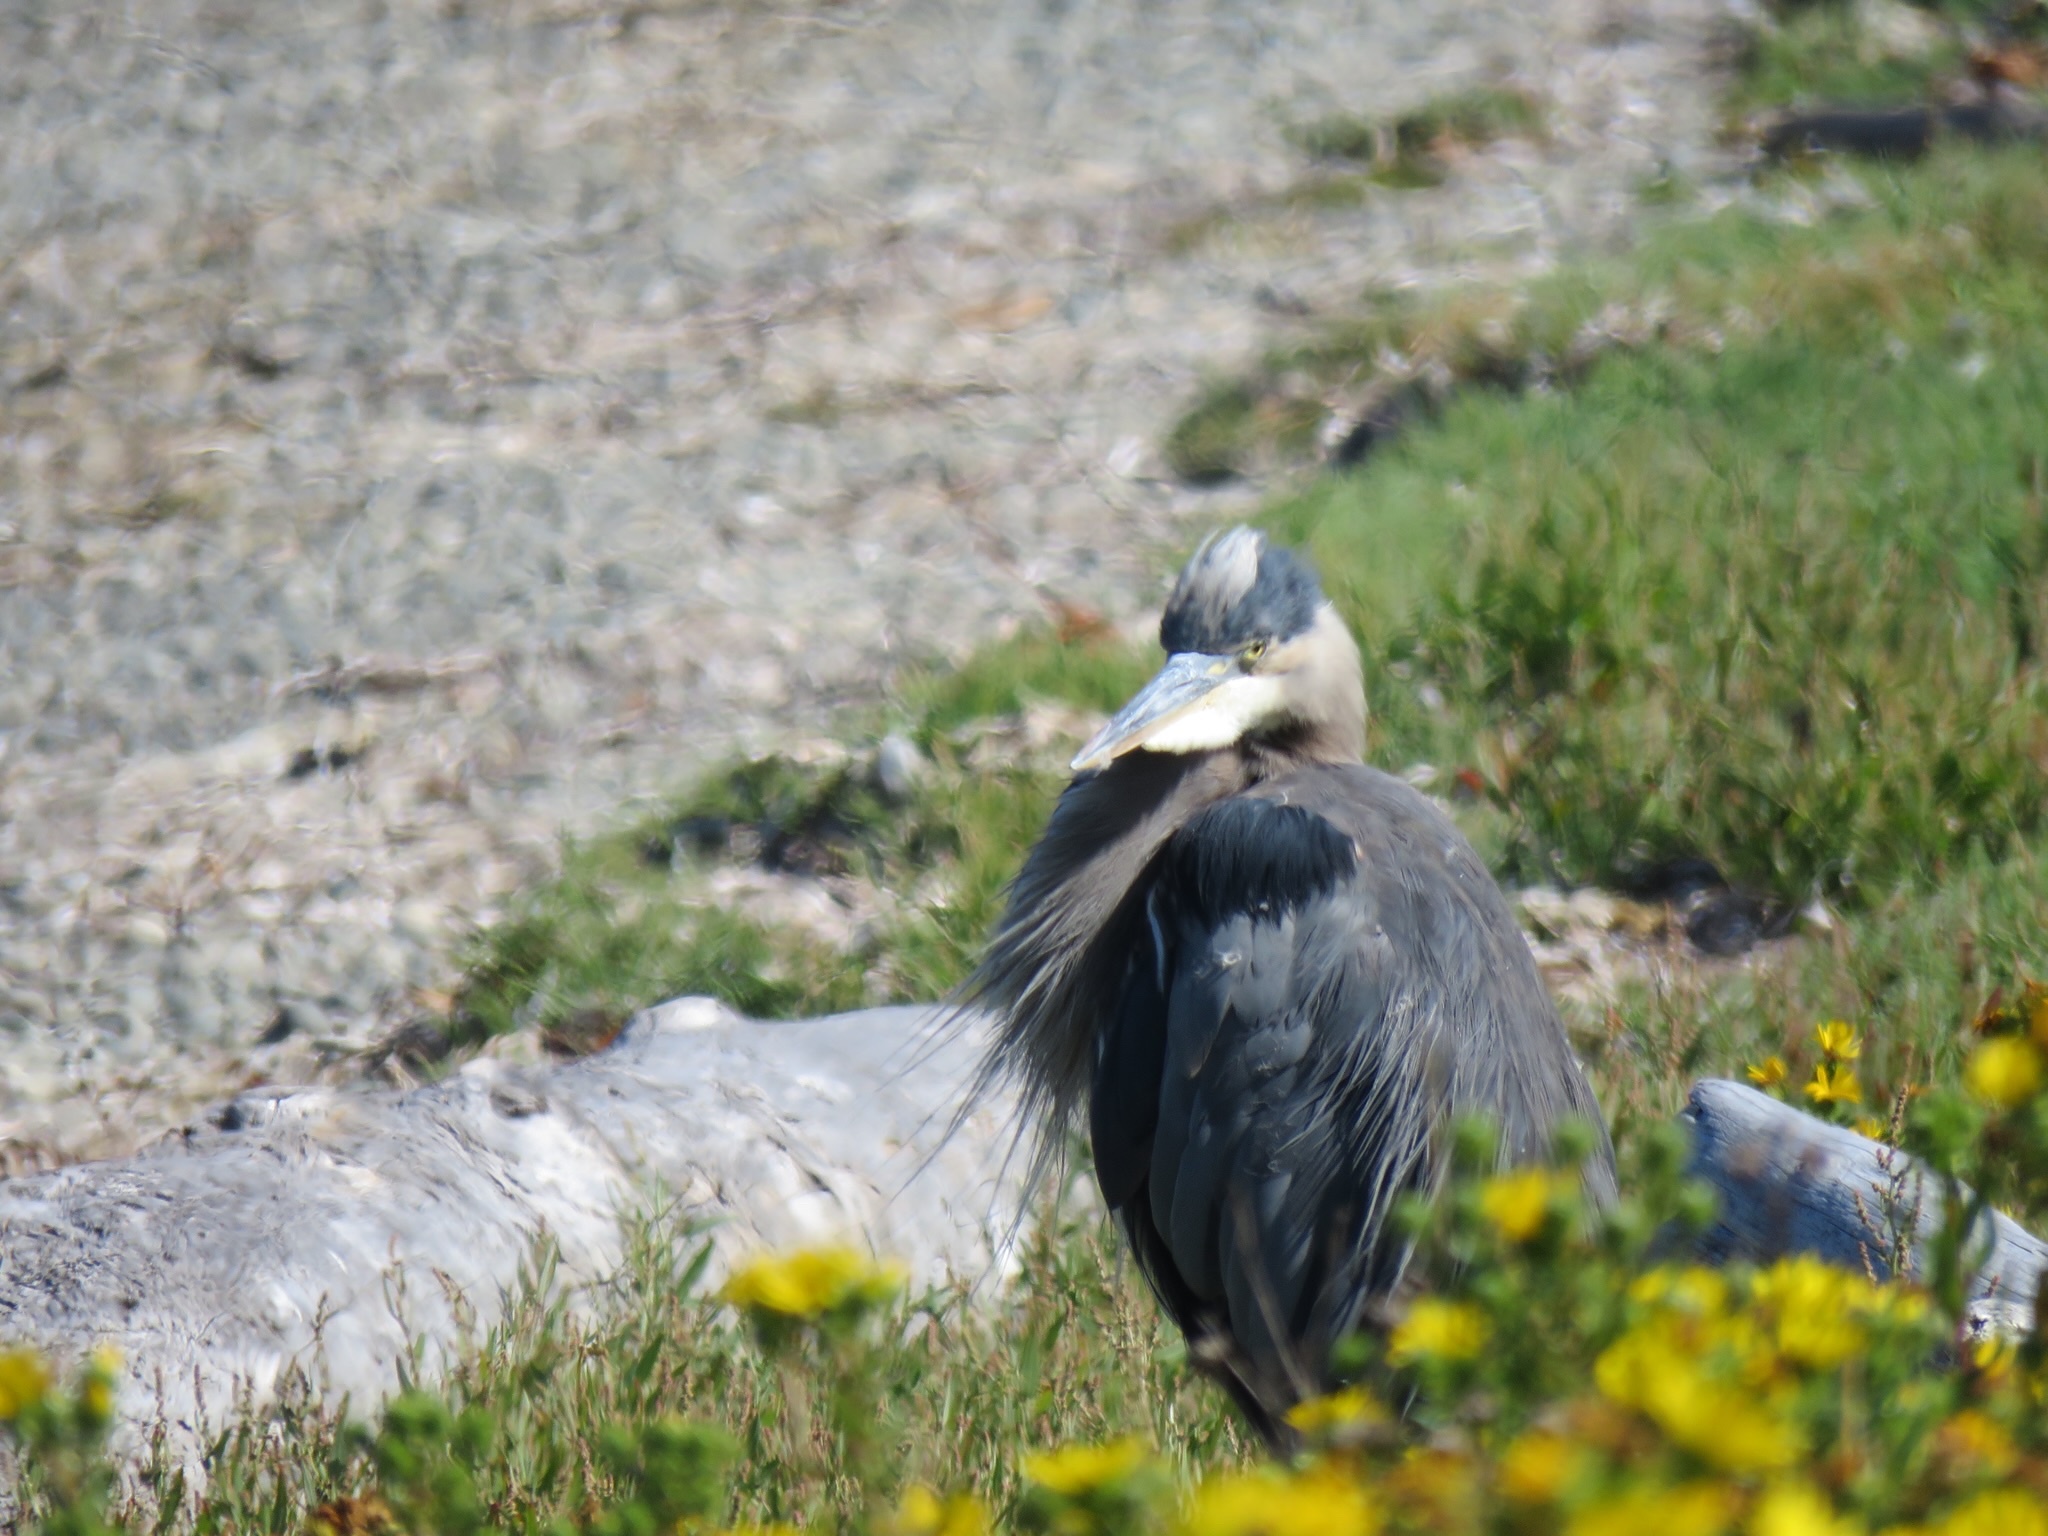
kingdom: Animalia
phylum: Chordata
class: Aves
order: Pelecaniformes
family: Ardeidae
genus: Ardea
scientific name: Ardea herodias
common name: Great blue heron
